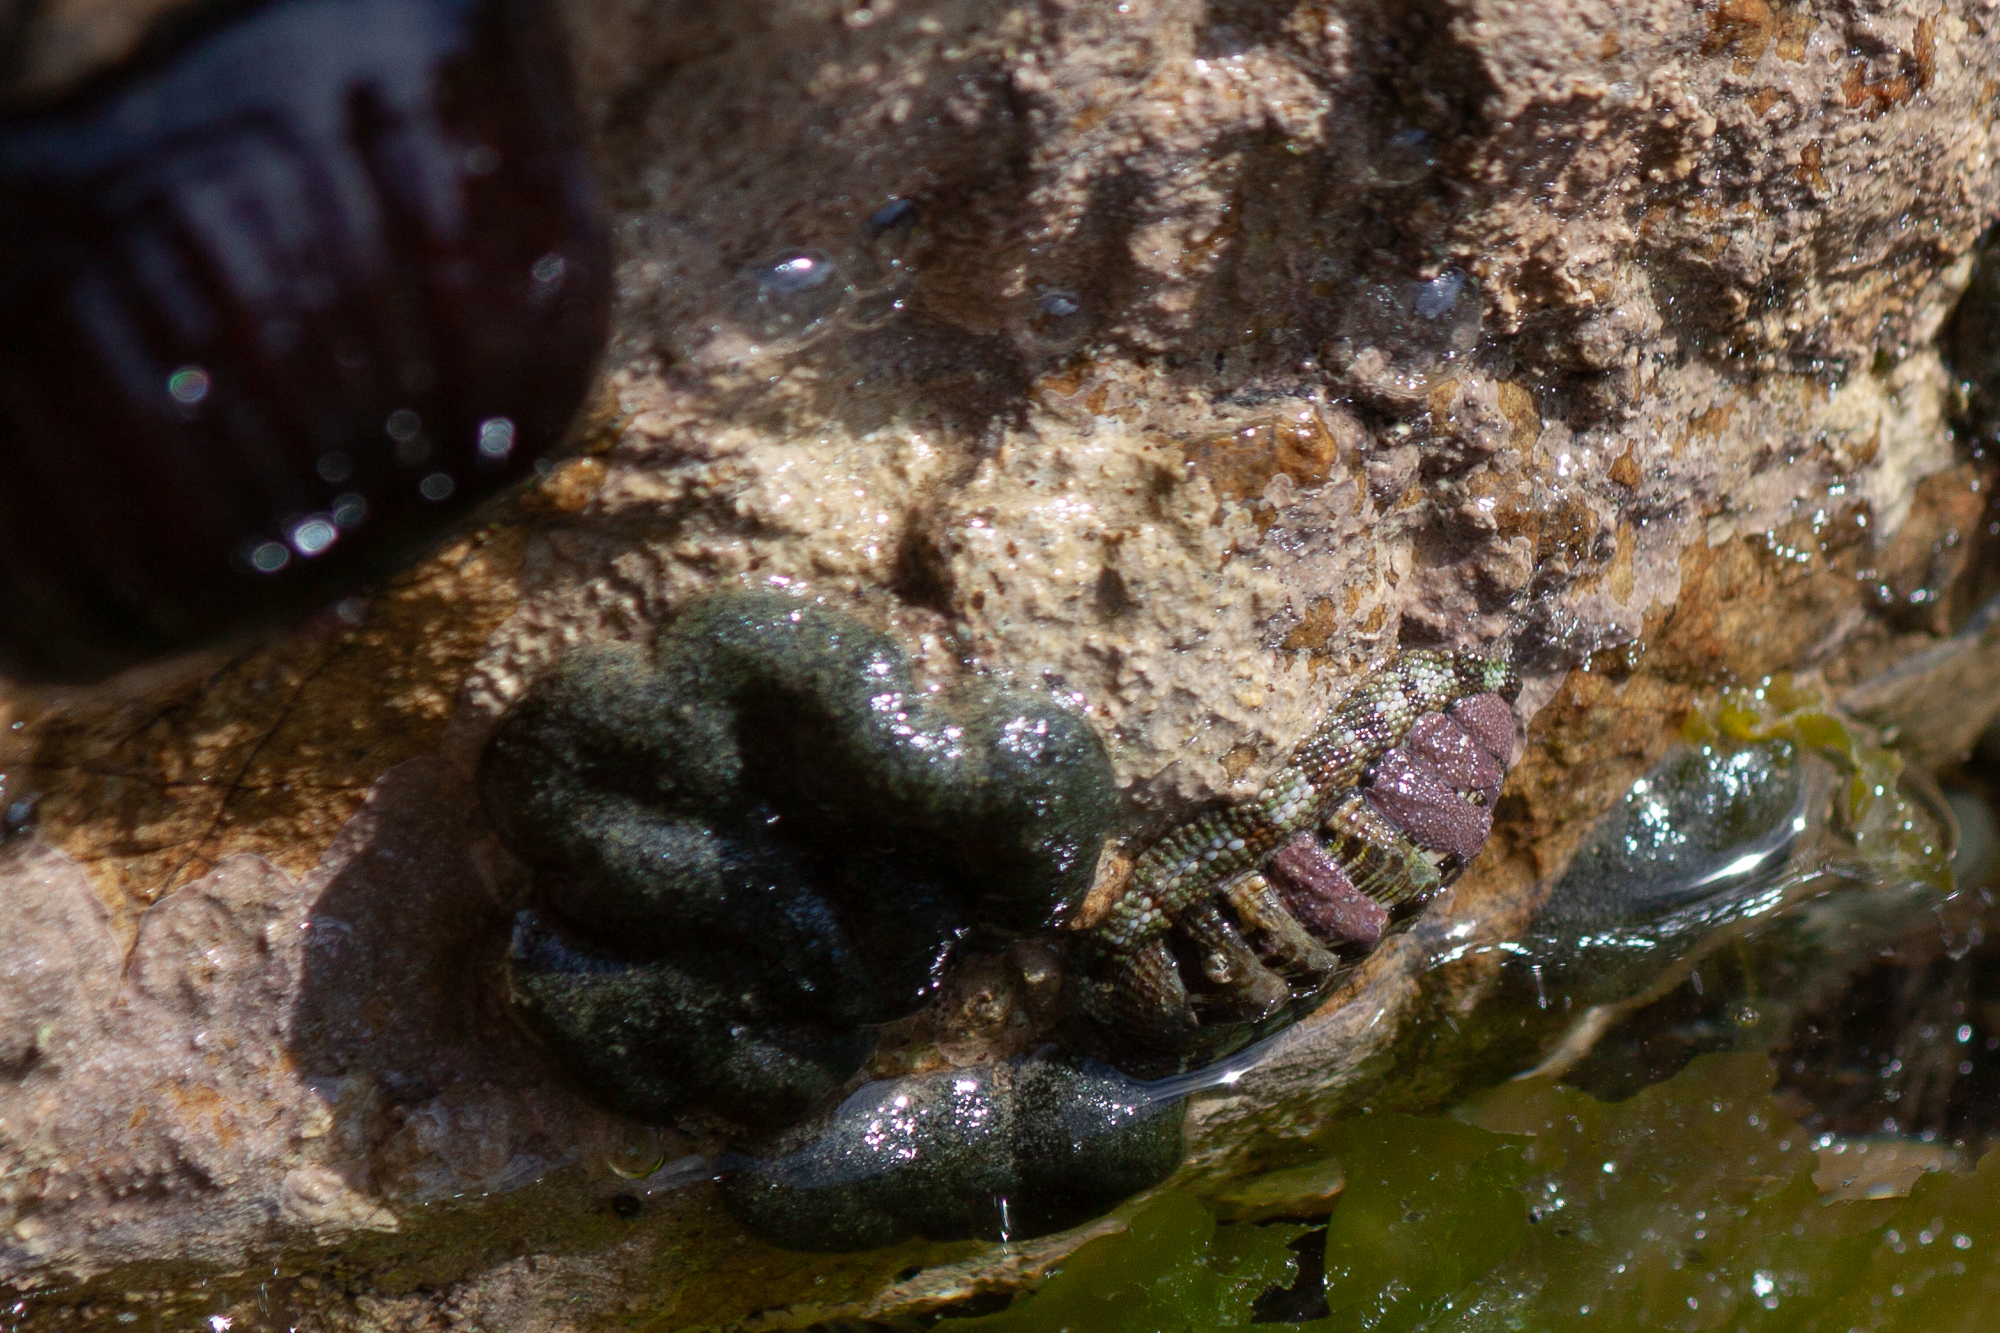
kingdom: Animalia
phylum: Mollusca
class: Polyplacophora
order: Chitonida
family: Chitonidae
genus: Sypharochiton
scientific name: Sypharochiton pelliserpentis
